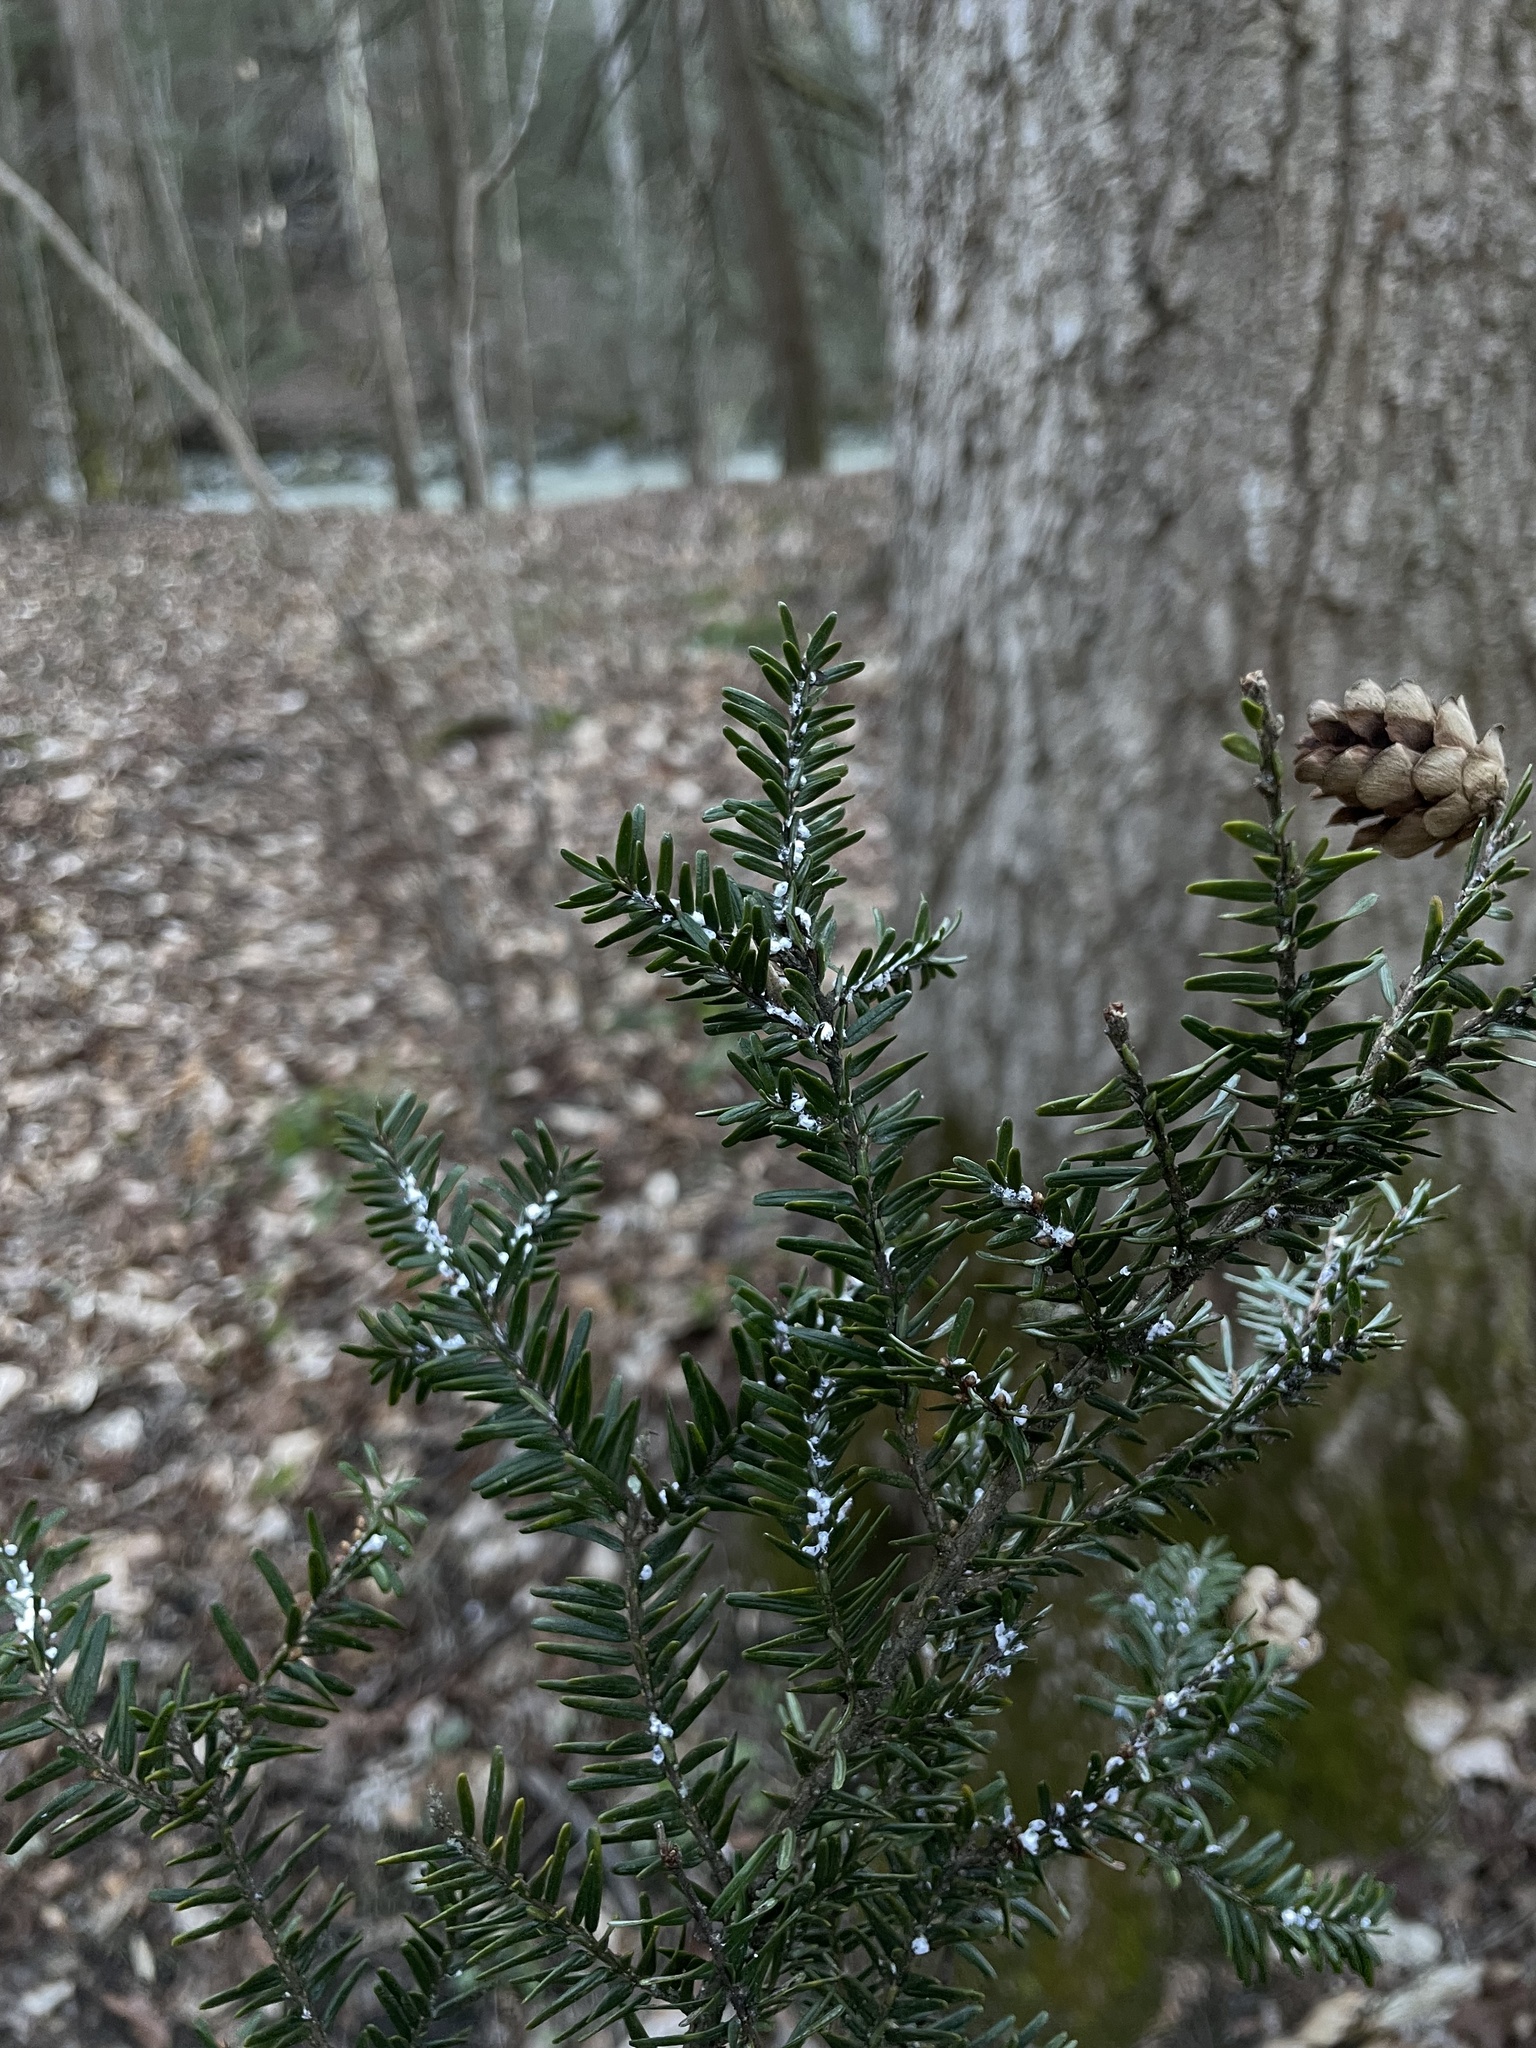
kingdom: Animalia
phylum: Arthropoda
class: Insecta
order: Hemiptera
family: Adelgidae
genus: Adelges
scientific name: Adelges tsugae
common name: Hemlock woolly adelgid
